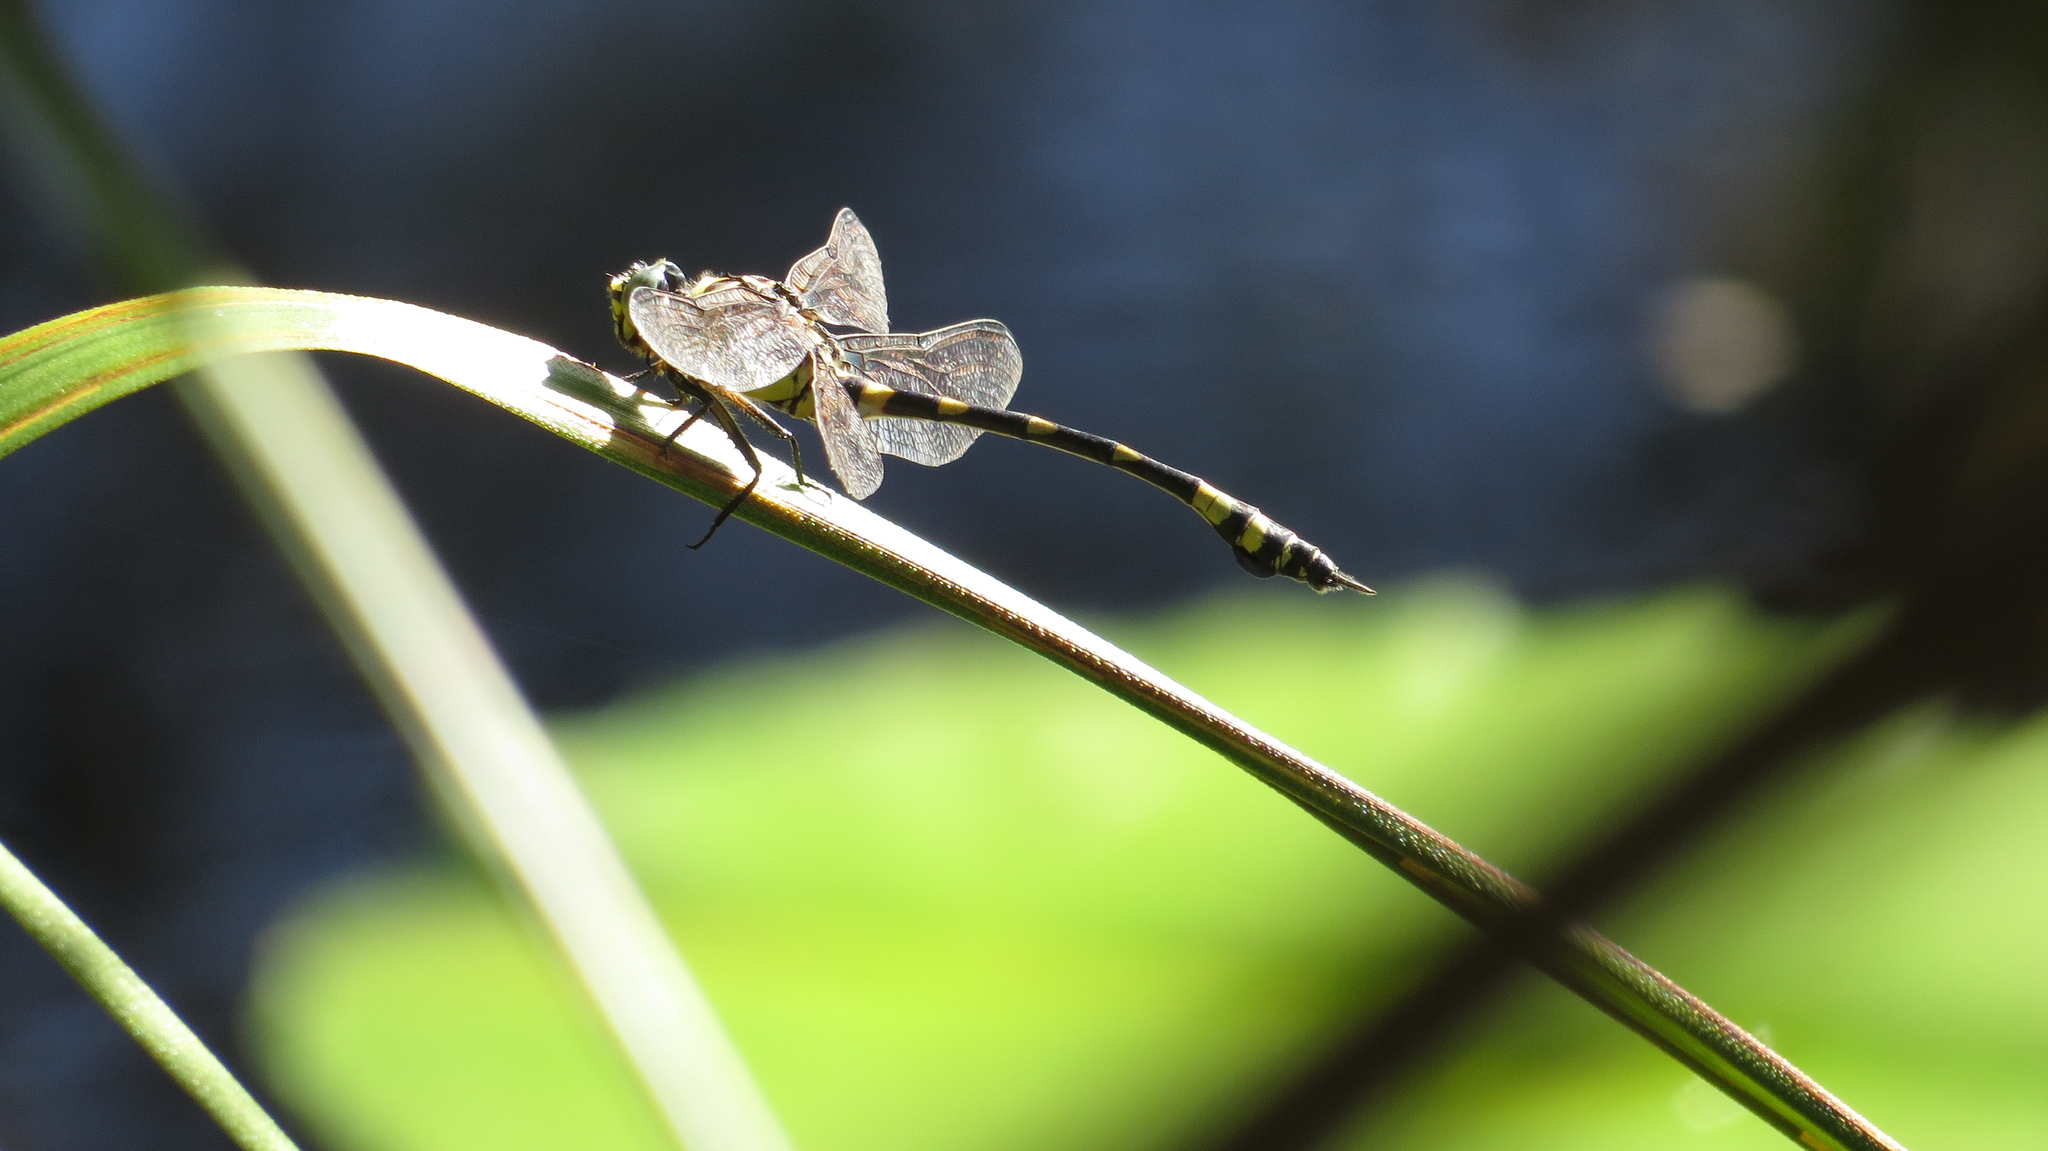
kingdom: Animalia
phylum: Arthropoda
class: Insecta
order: Odonata
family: Gomphidae
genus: Ictinogomphus
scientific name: Ictinogomphus australis
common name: Australian tiger
